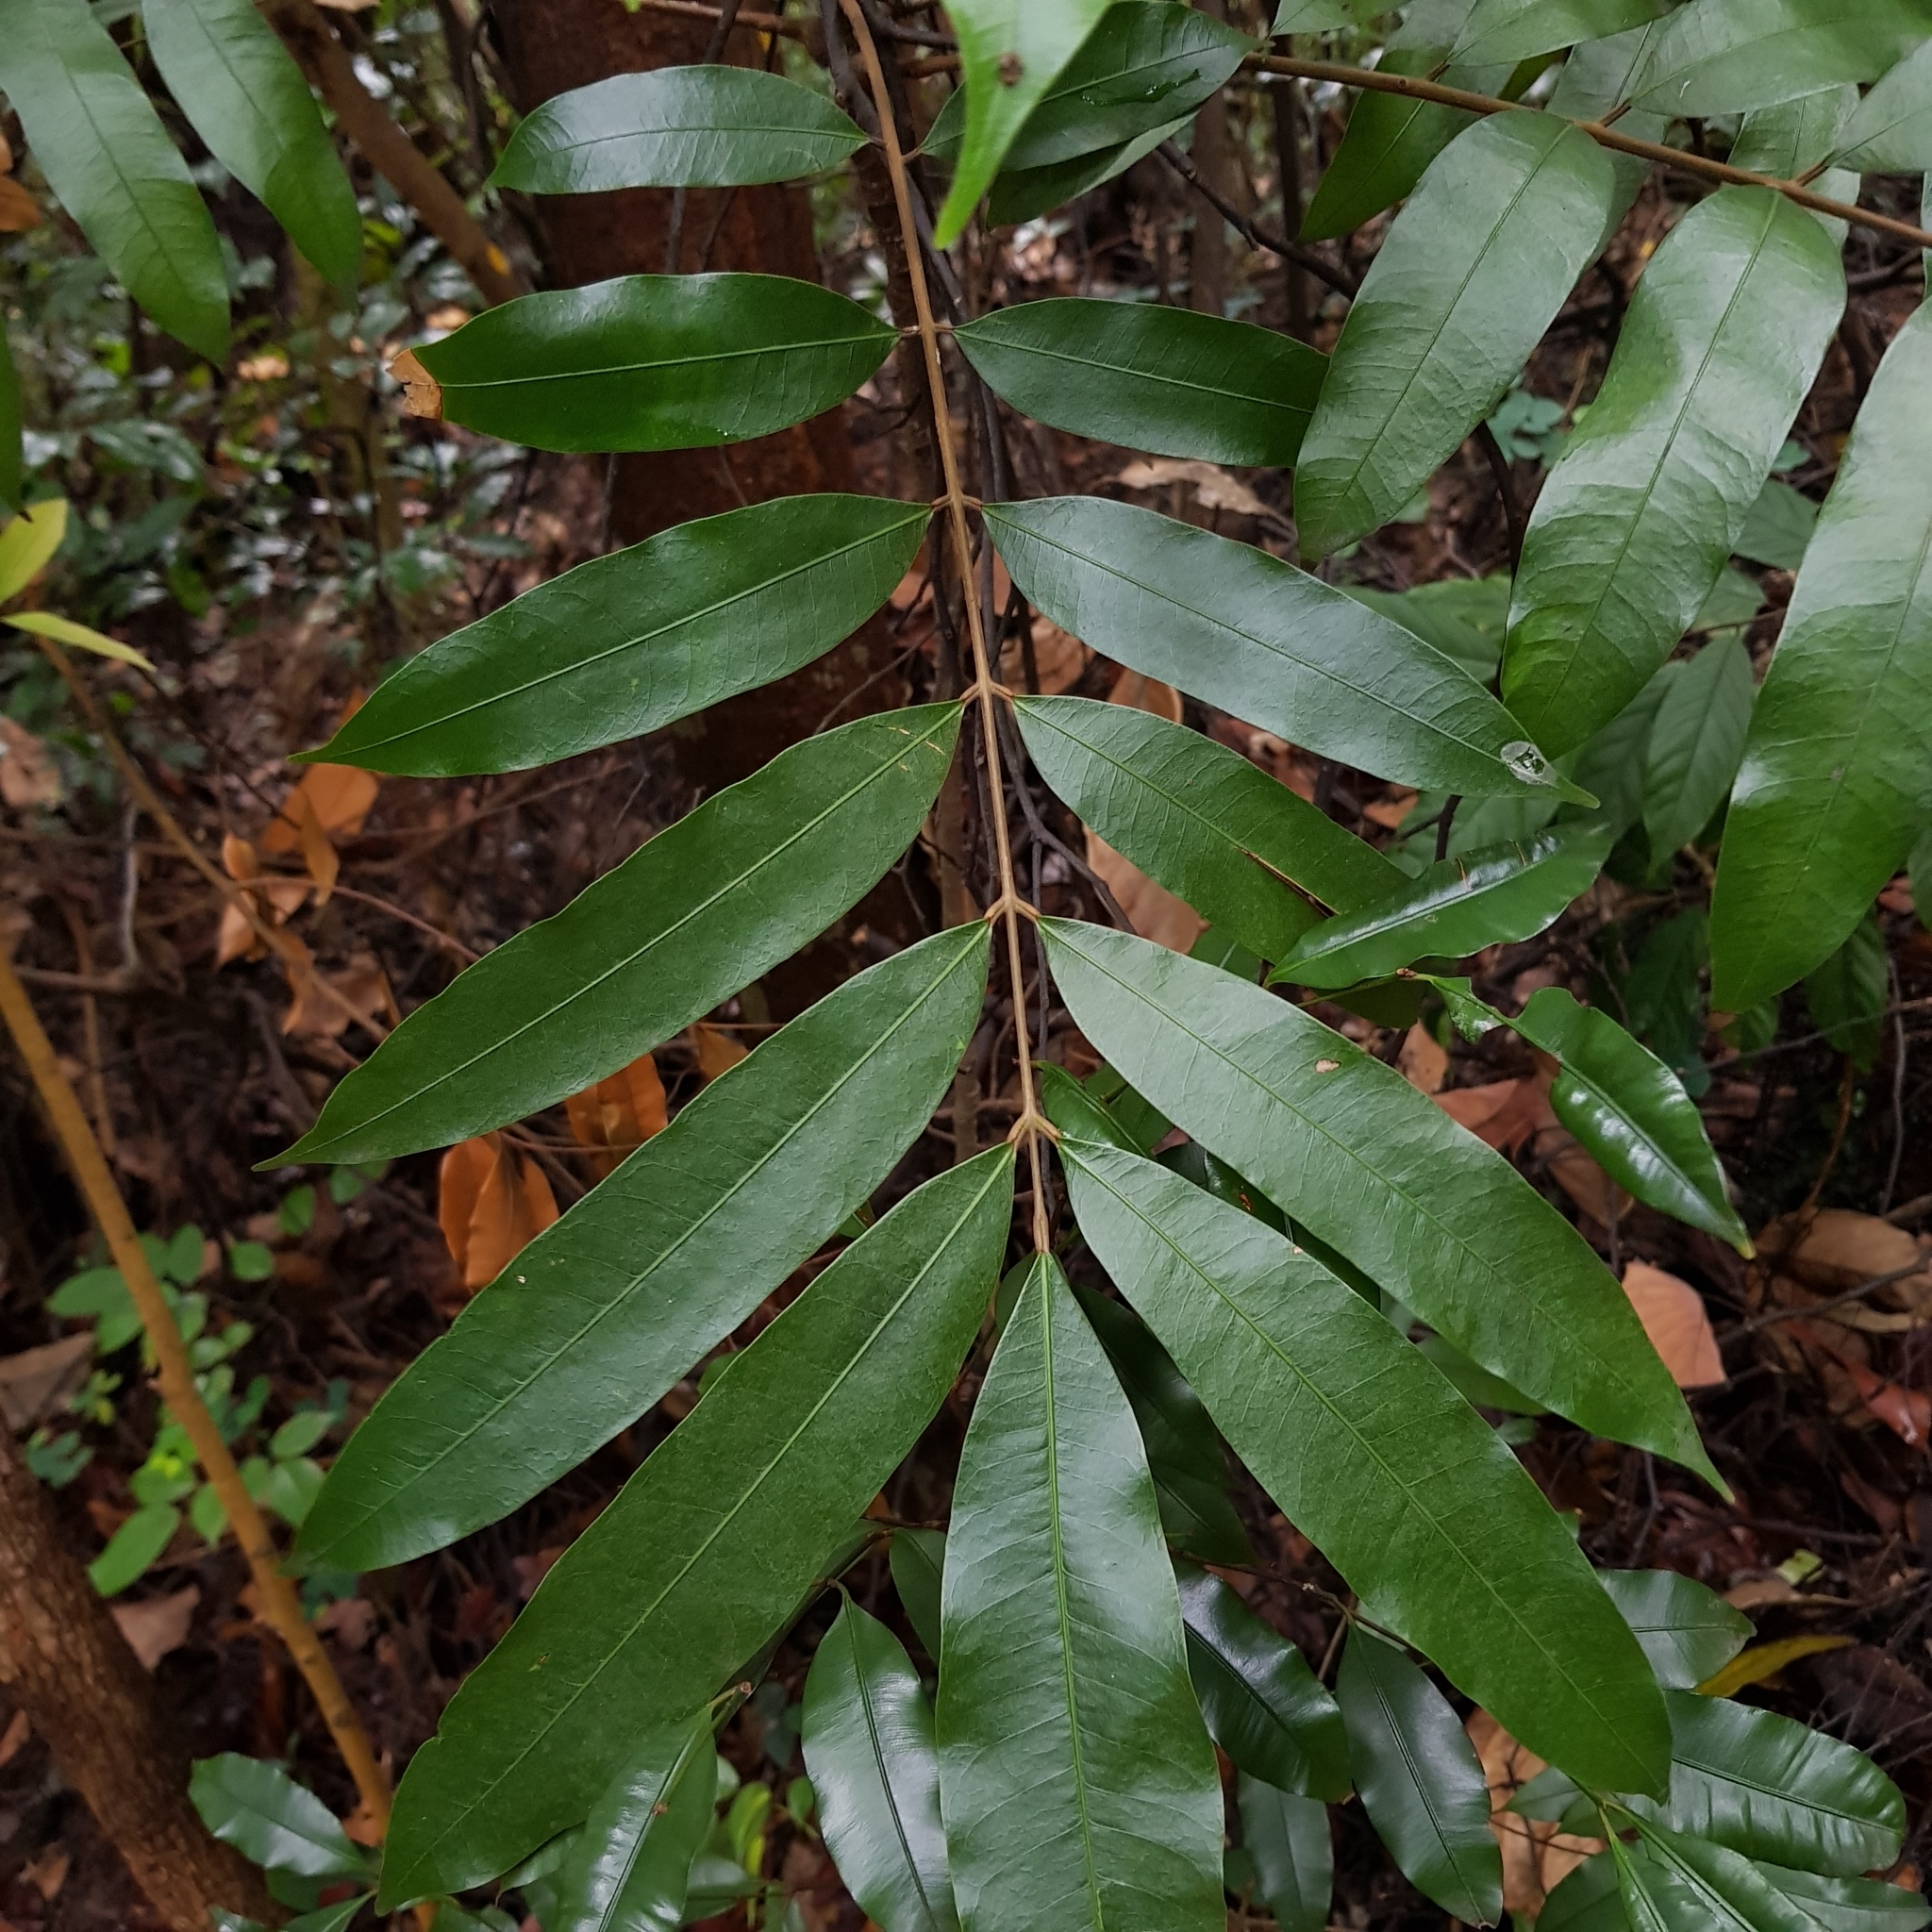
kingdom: Plantae
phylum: Tracheophyta
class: Magnoliopsida
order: Sapindales
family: Anacardiaceae
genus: Parishia
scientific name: Parishia maingayi
